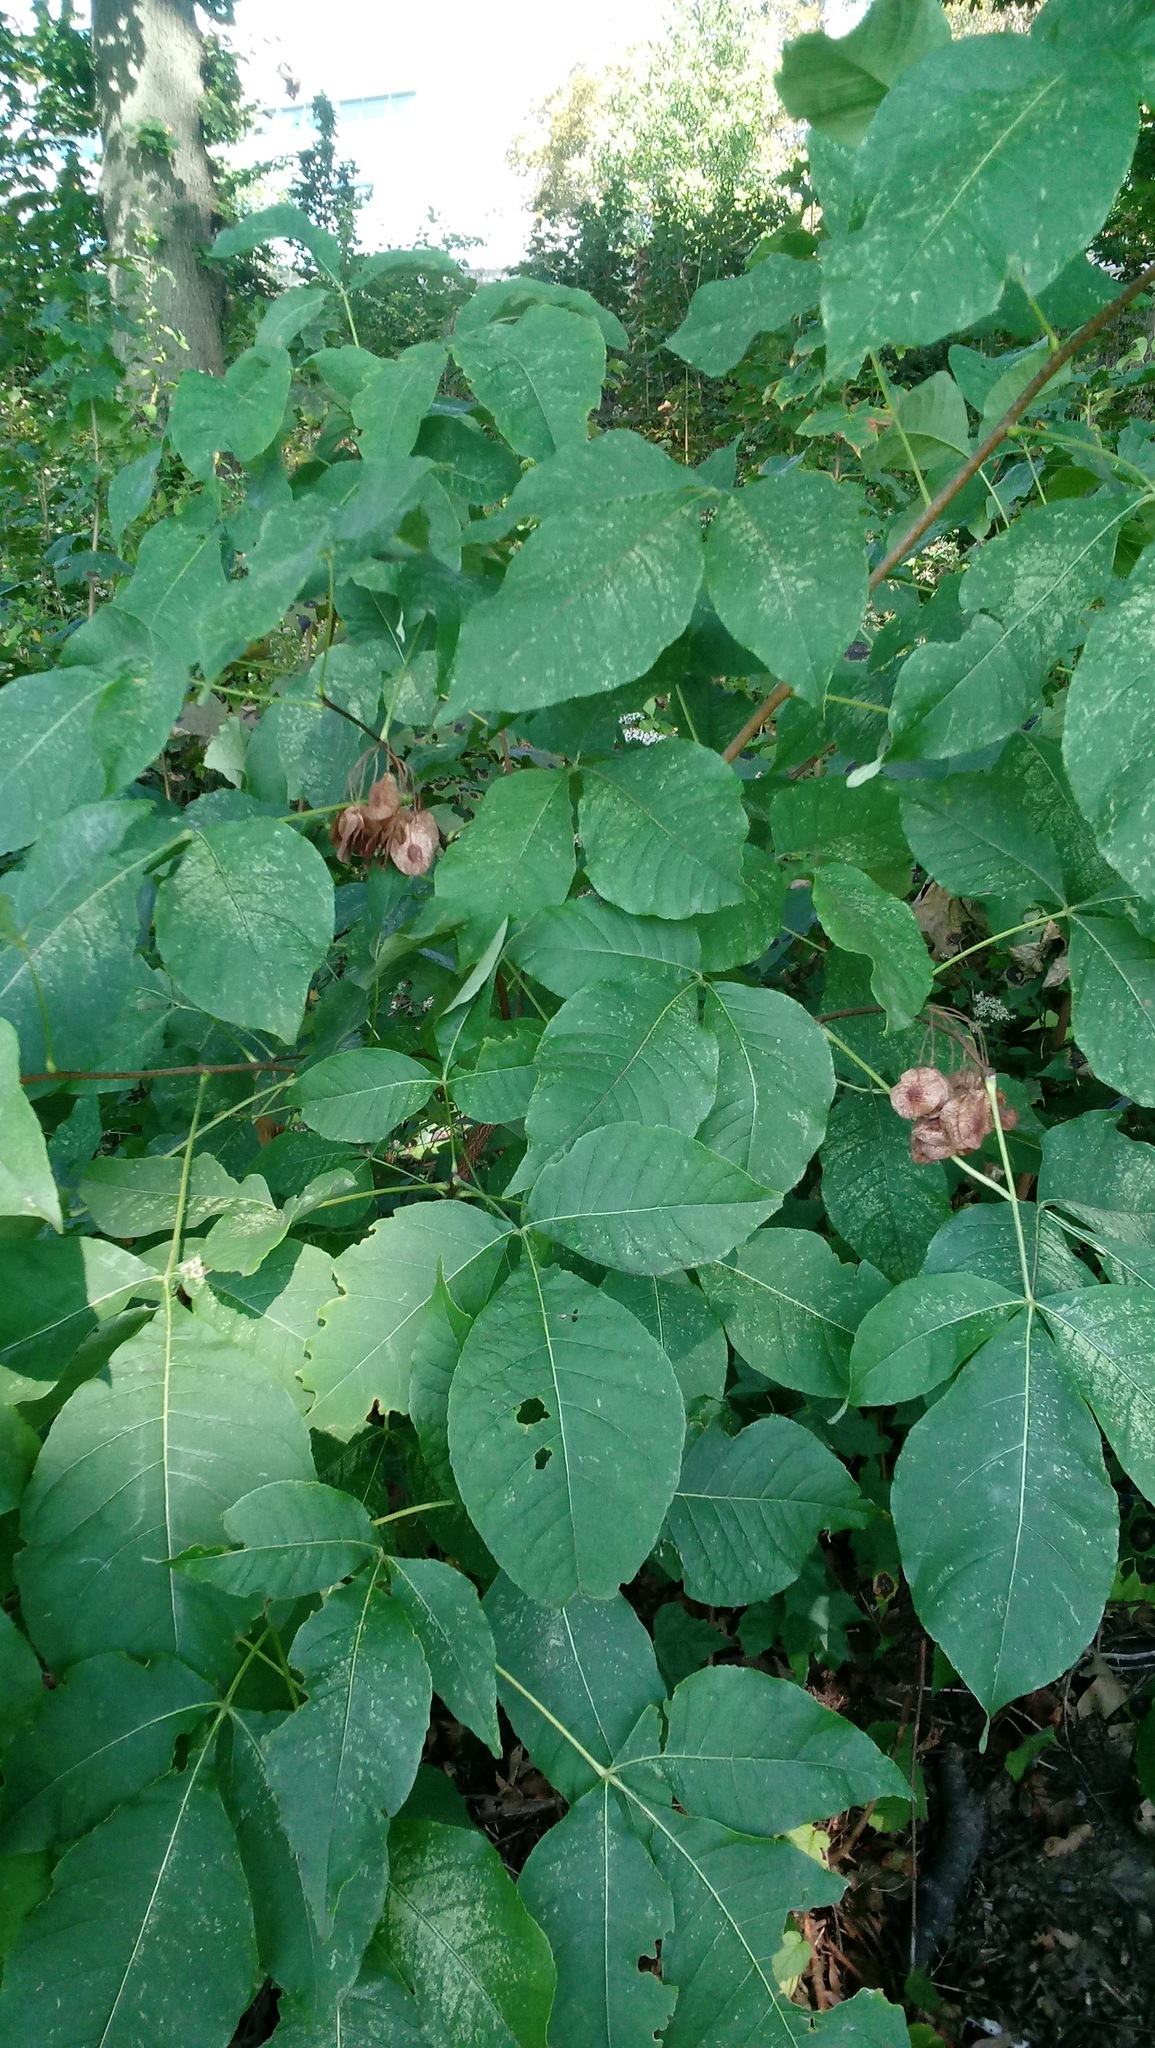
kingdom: Plantae
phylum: Tracheophyta
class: Magnoliopsida
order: Sapindales
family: Rutaceae
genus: Ptelea
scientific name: Ptelea trifoliata
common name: Common hop-tree
